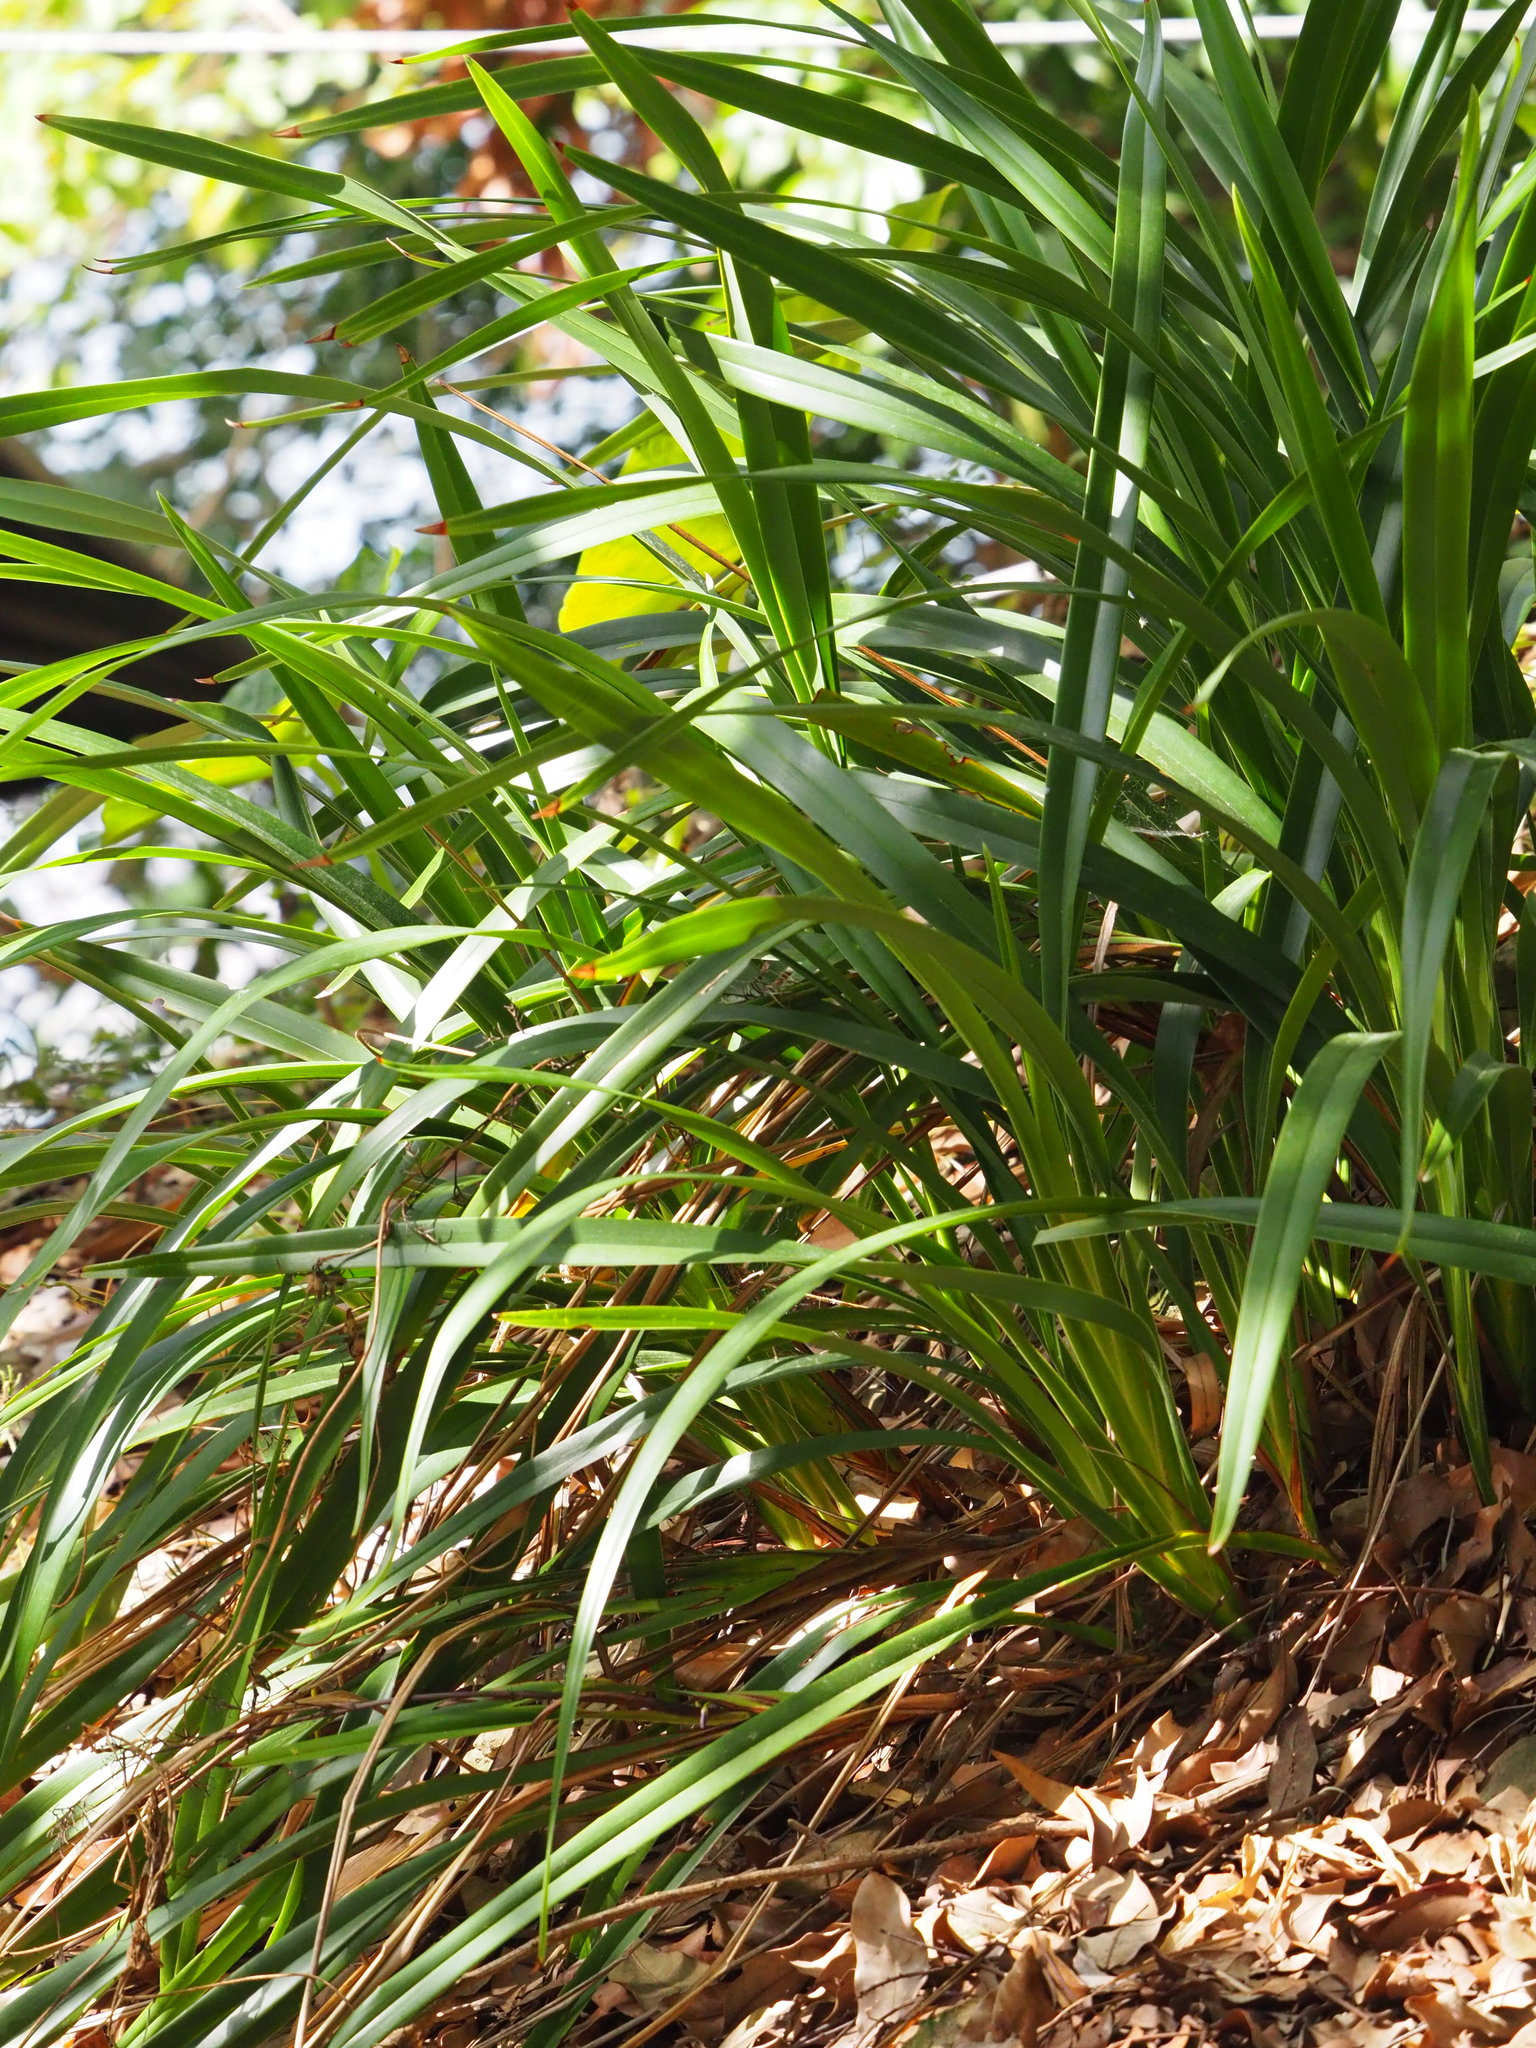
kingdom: Plantae
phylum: Tracheophyta
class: Liliopsida
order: Asparagales
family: Asphodelaceae
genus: Dianella
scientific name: Dianella ensifolia
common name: New zealand lilyplant
